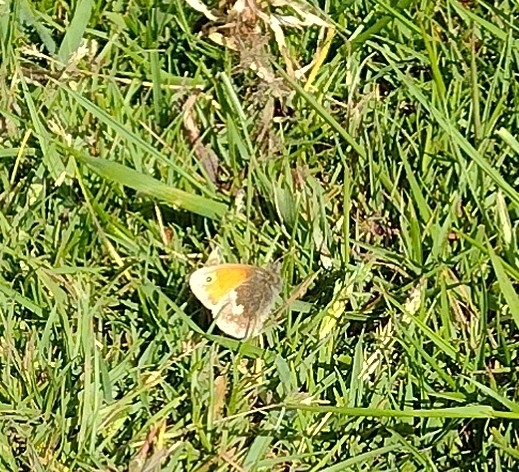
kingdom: Animalia
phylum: Arthropoda
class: Insecta
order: Lepidoptera
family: Nymphalidae
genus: Coenonympha
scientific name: Coenonympha pamphilus
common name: Small heath
